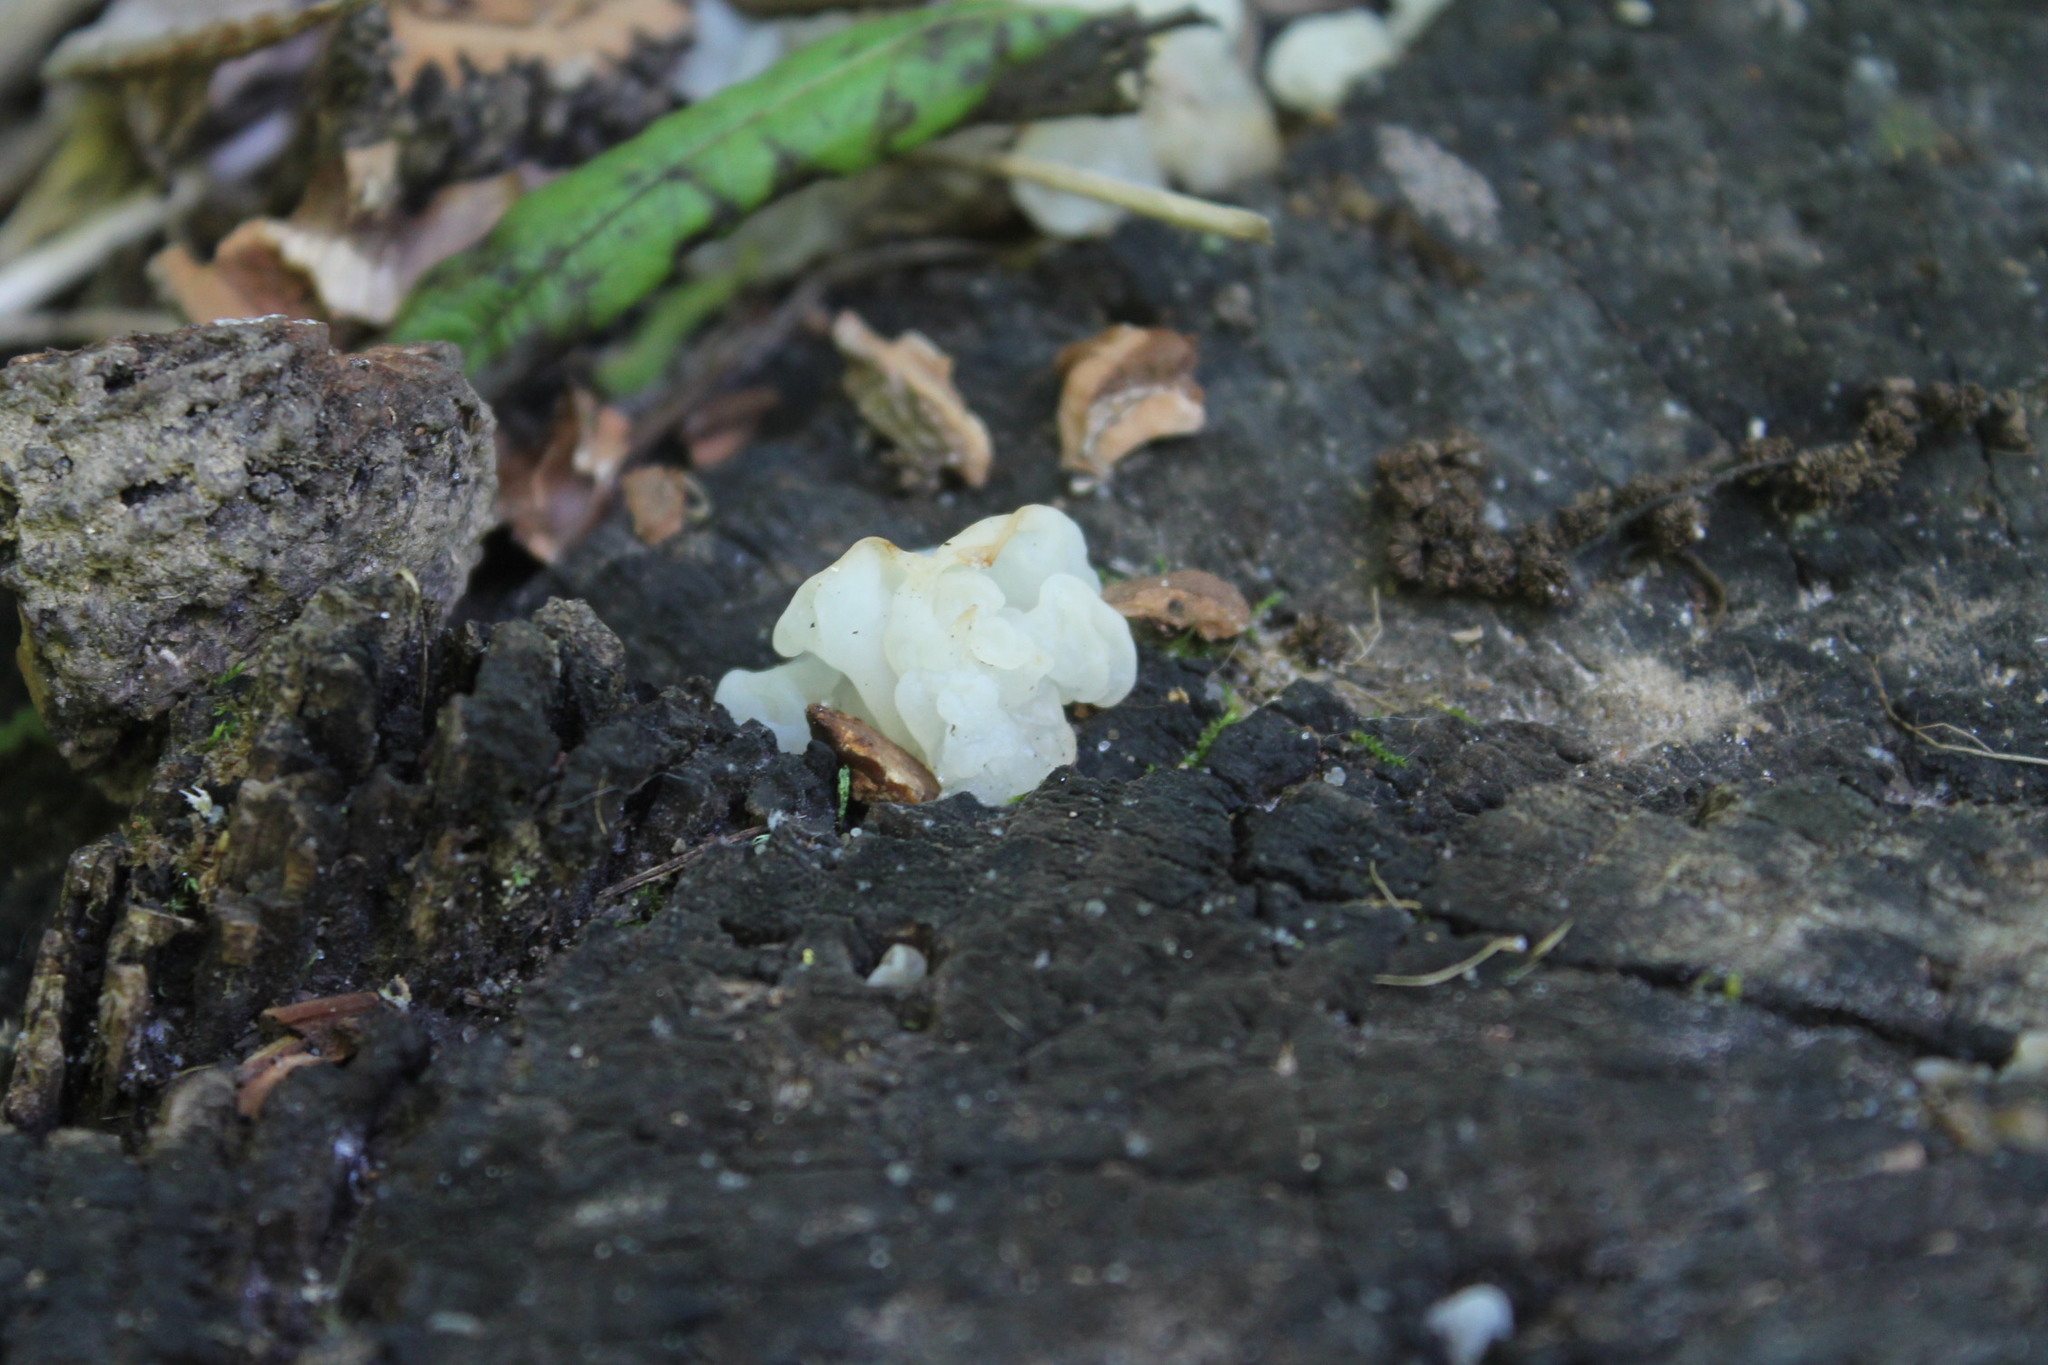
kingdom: Fungi
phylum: Basidiomycota
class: Agaricomycetes
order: Auriculariales
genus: Ductifera
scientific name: Ductifera pululahuana
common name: White jelly fungus
